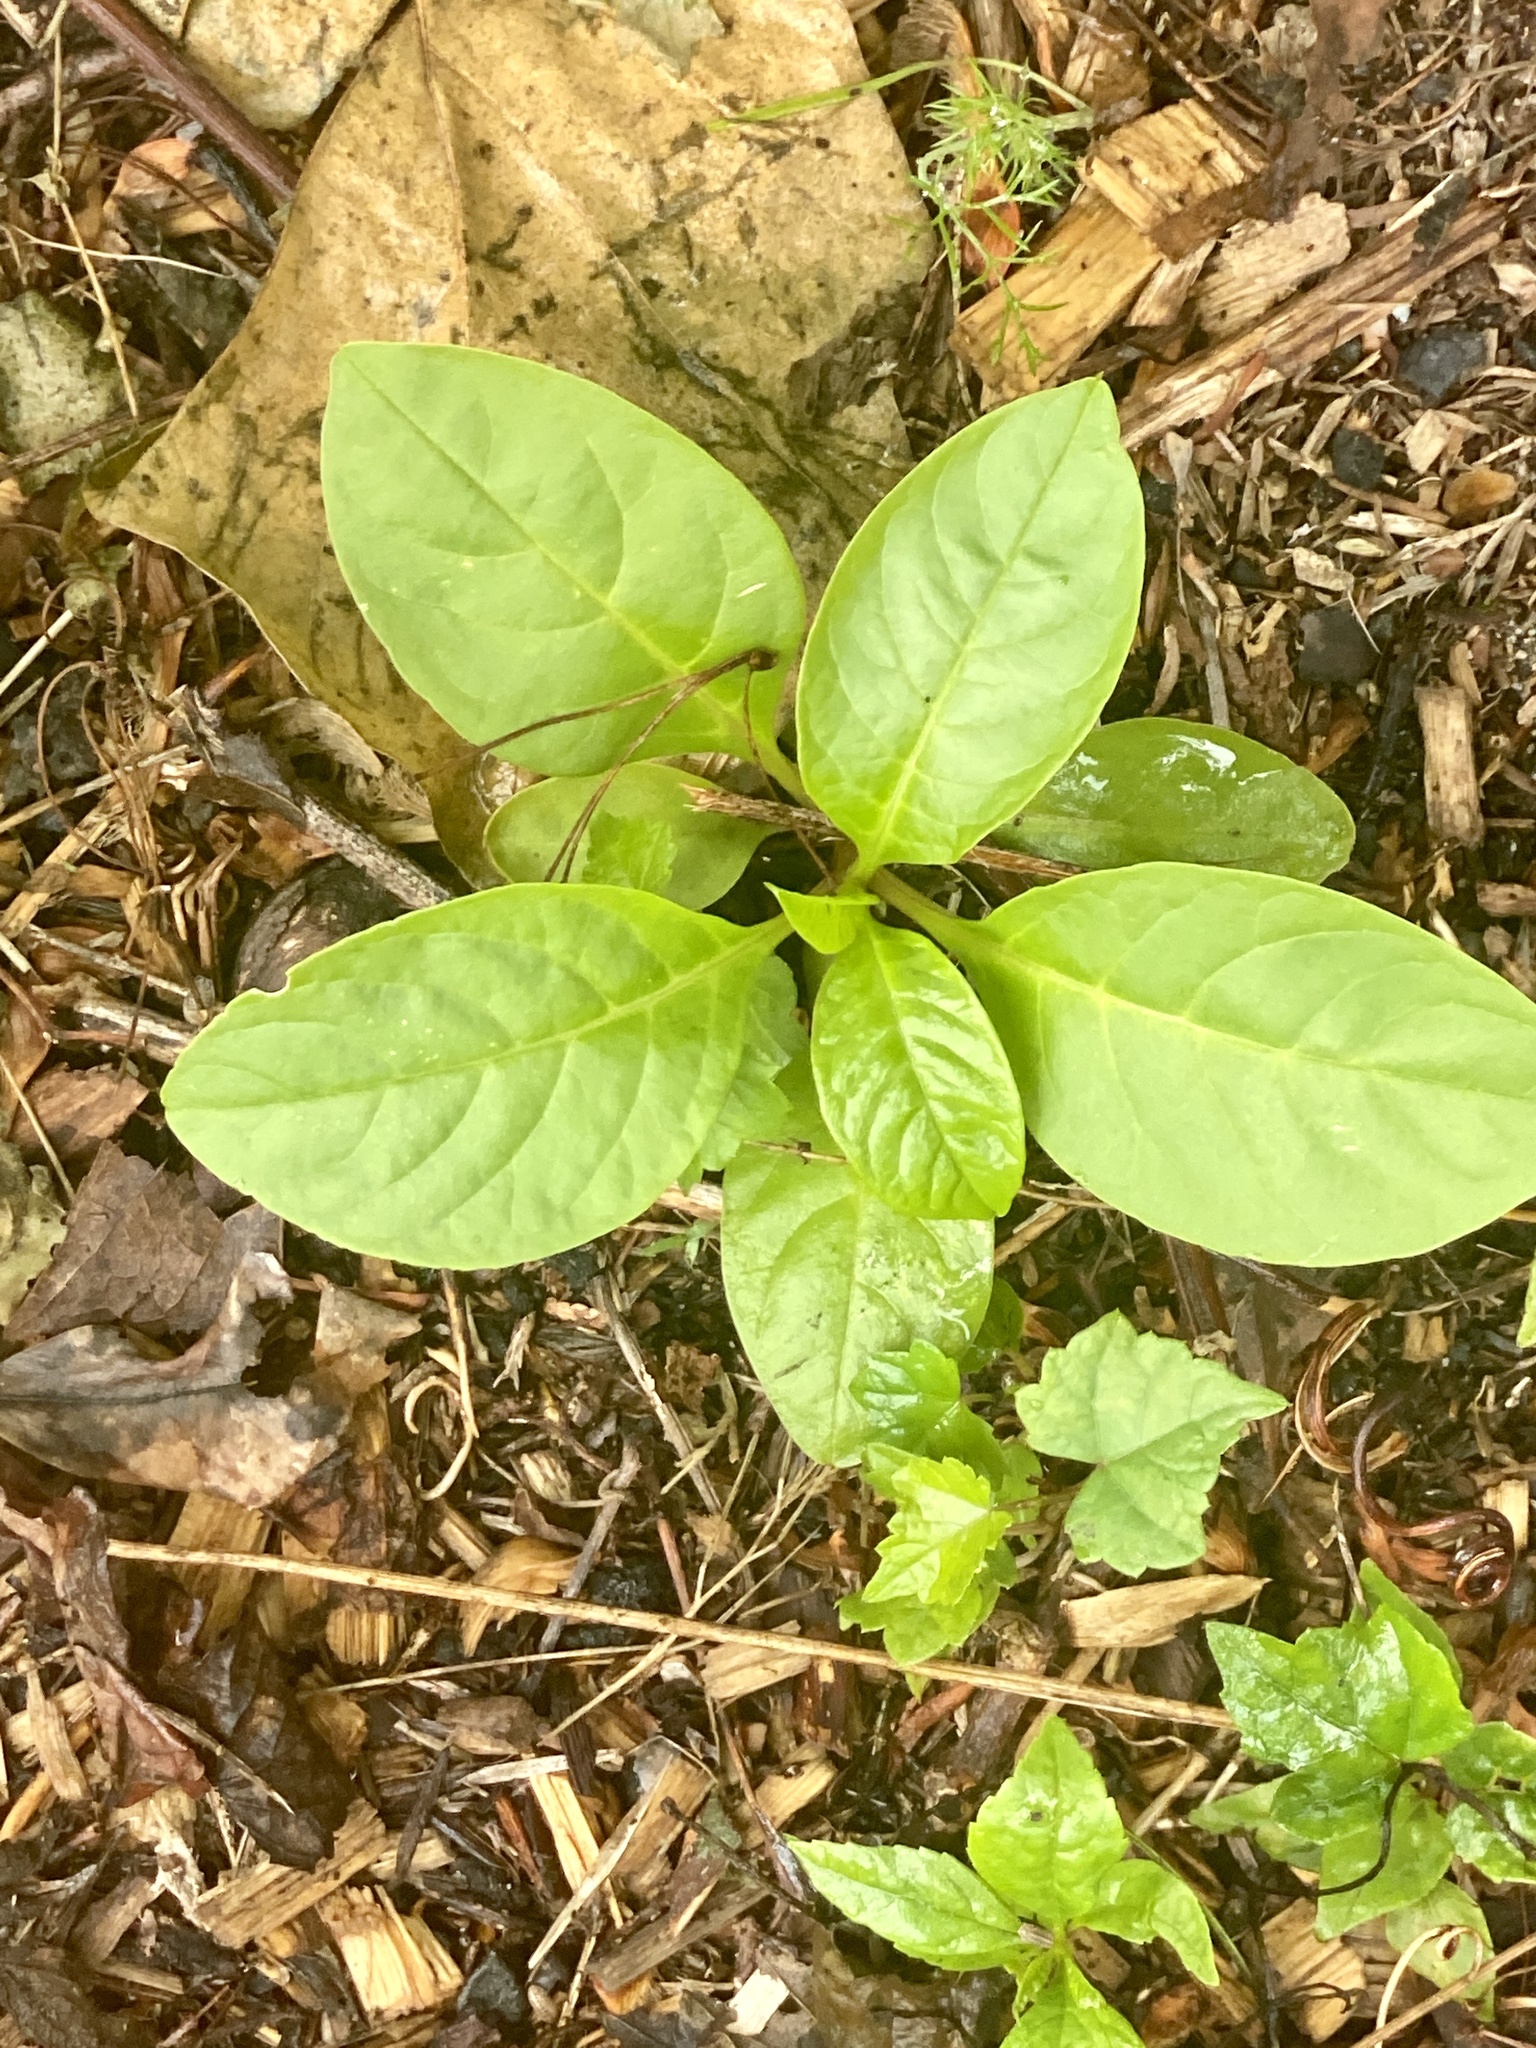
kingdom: Plantae
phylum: Tracheophyta
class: Magnoliopsida
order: Caryophyllales
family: Phytolaccaceae
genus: Phytolacca
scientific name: Phytolacca americana
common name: American pokeweed
